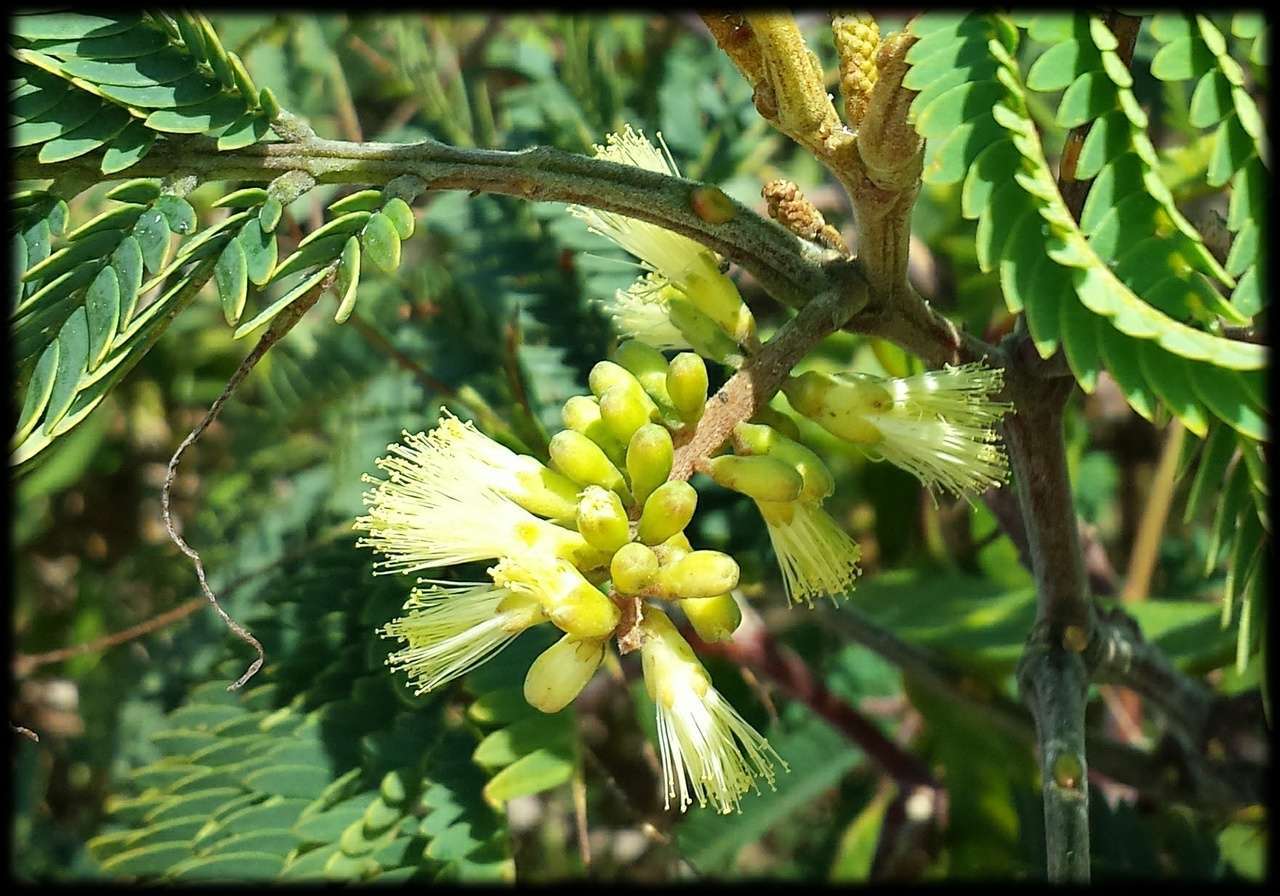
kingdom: Plantae
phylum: Tracheophyta
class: Magnoliopsida
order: Fabales
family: Fabaceae
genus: Paraserianthes
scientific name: Paraserianthes lophantha
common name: Plume albizia
